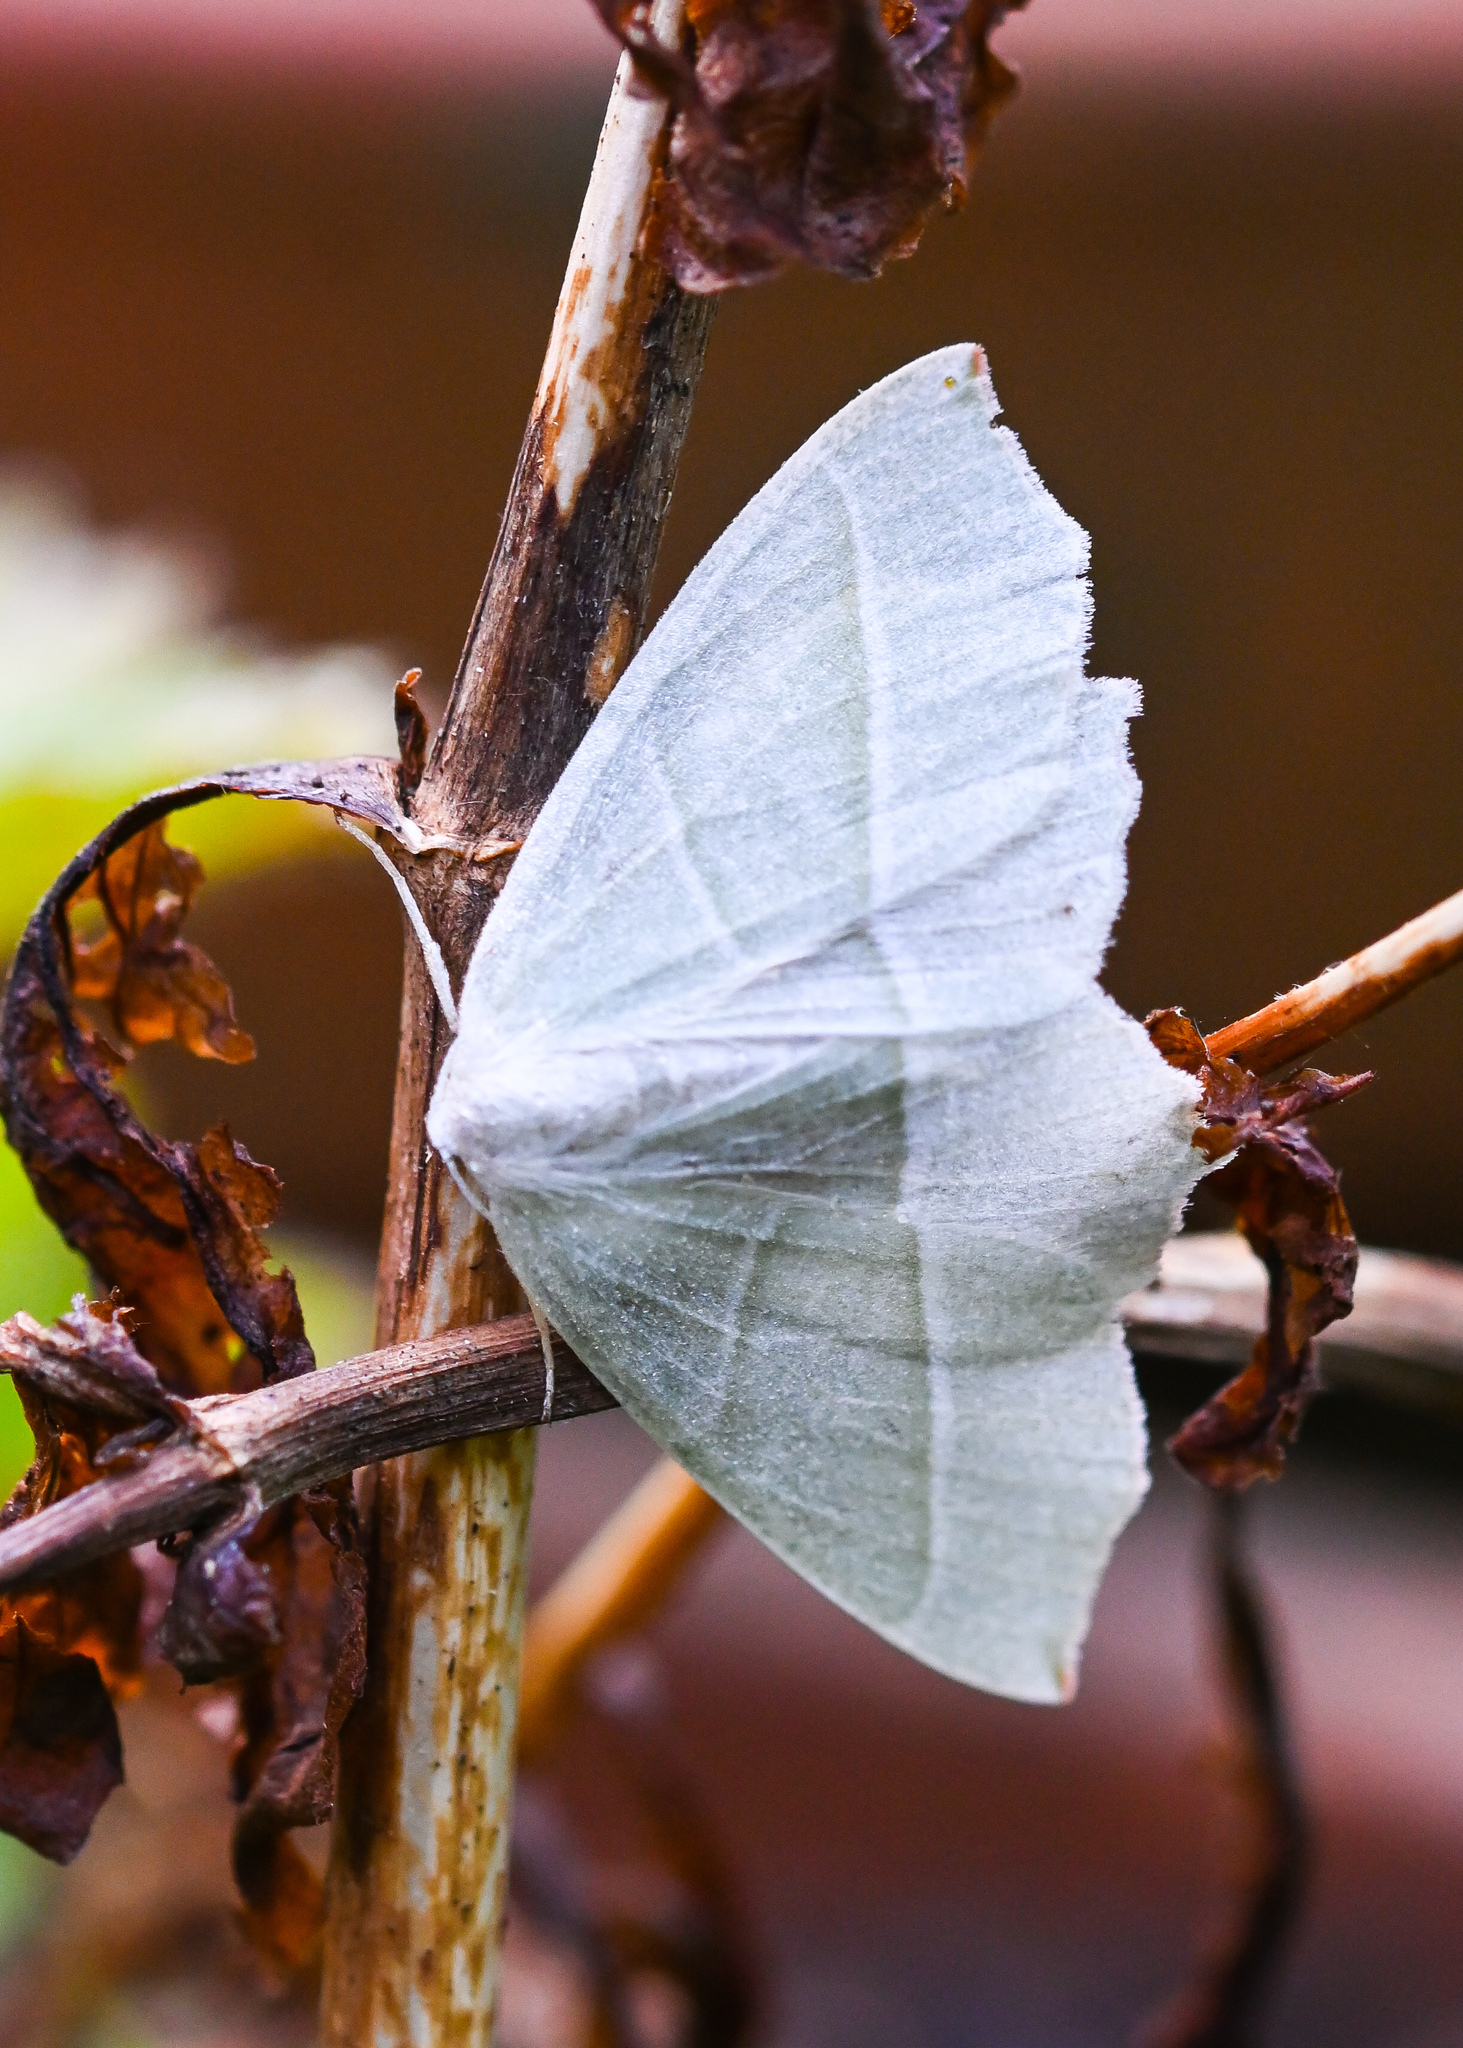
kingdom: Animalia
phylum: Arthropoda
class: Insecta
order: Lepidoptera
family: Geometridae
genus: Campaea
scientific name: Campaea margaritaria
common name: Light emerald
